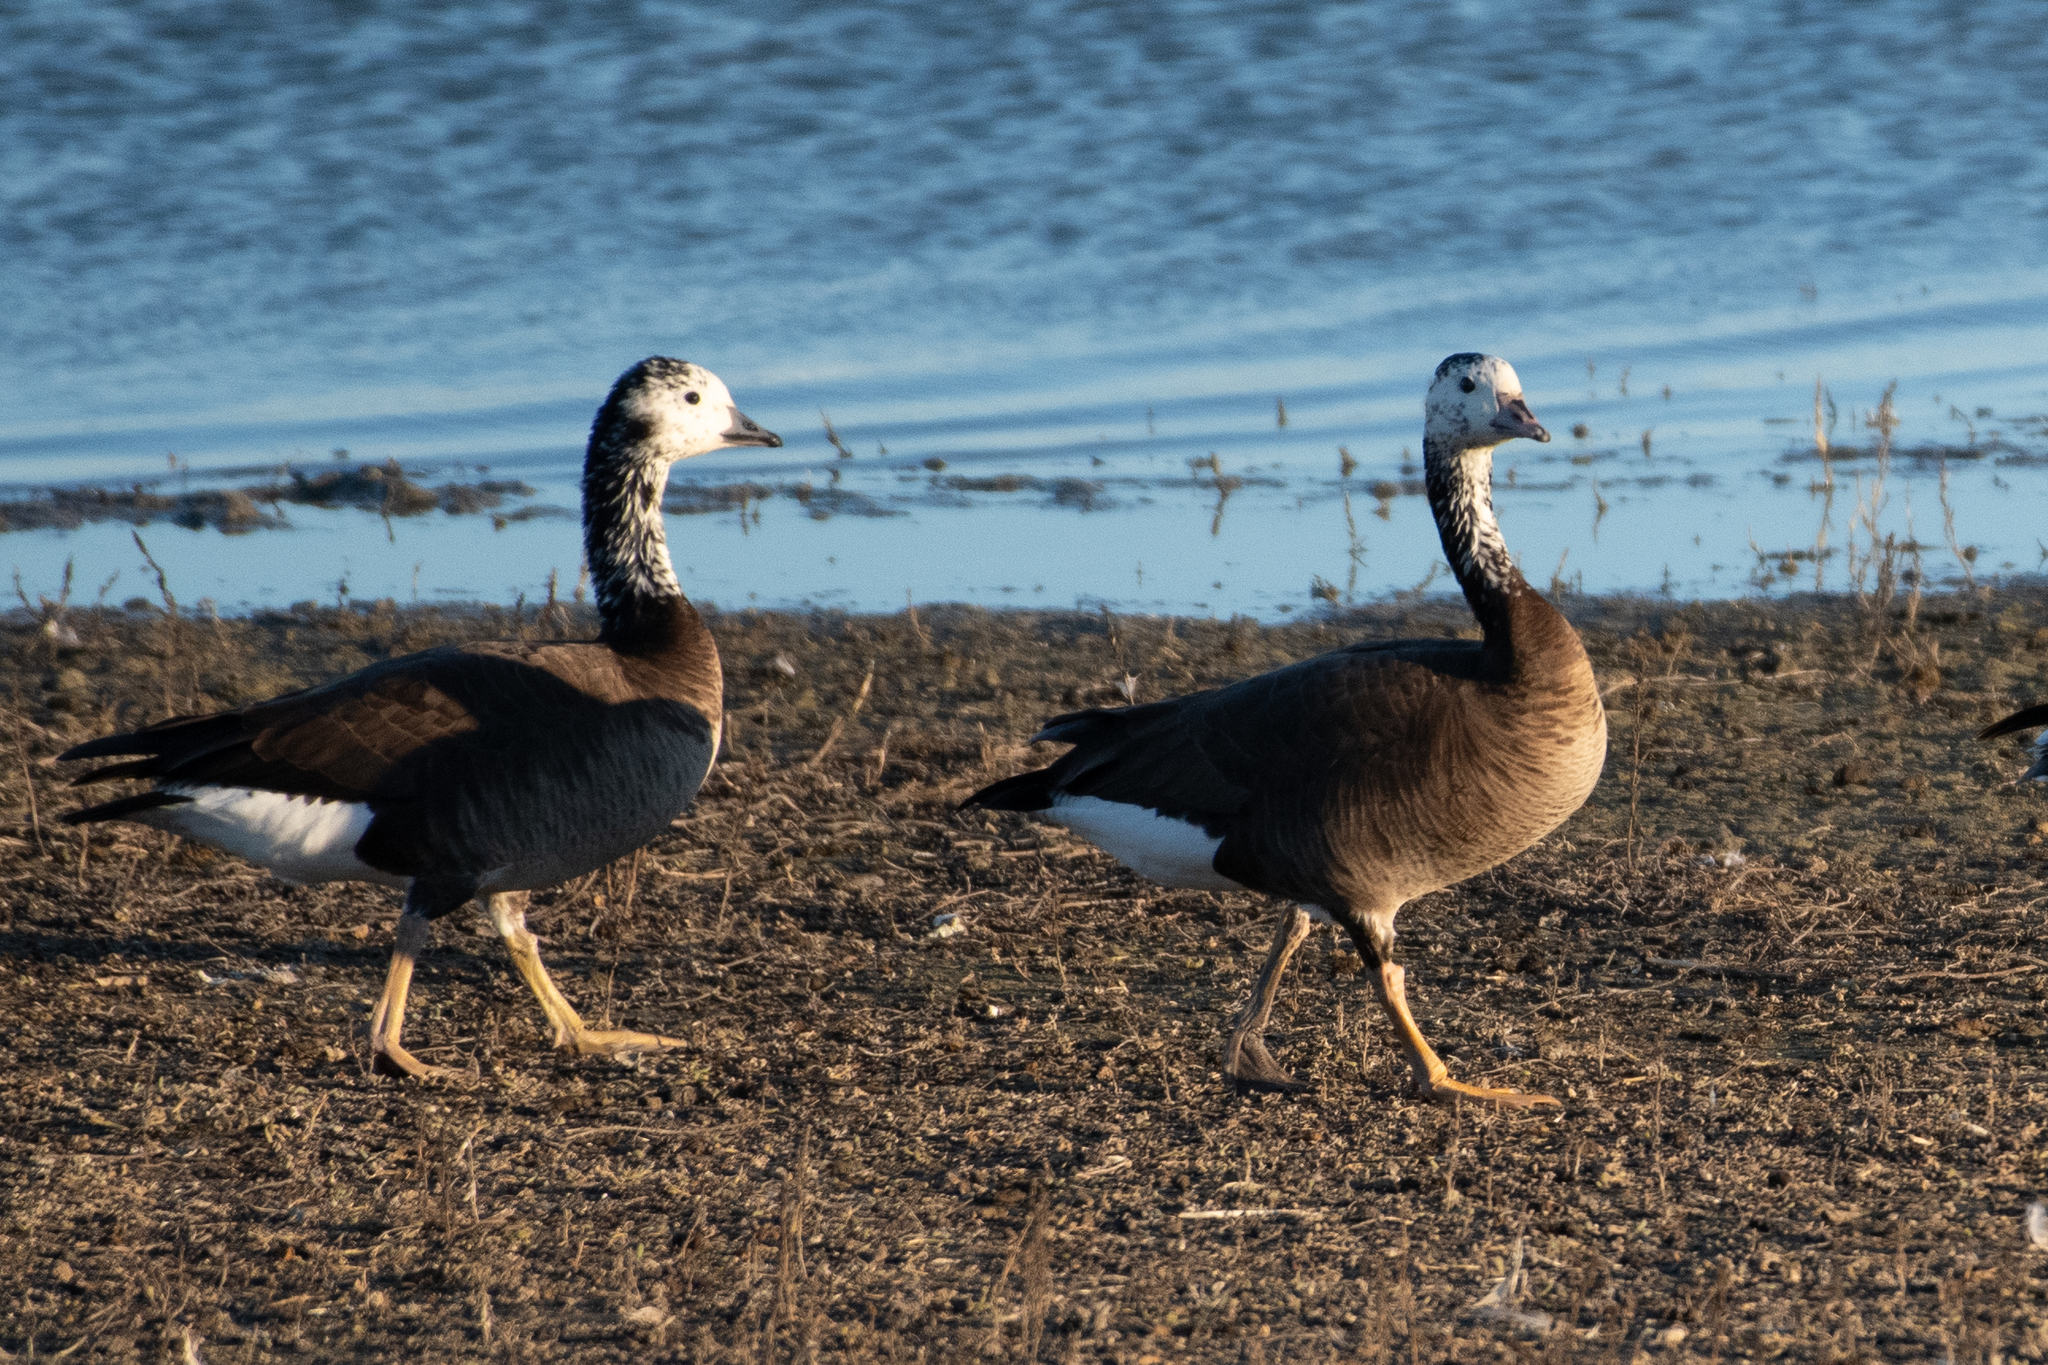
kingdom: Animalia
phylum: Chordata
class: Aves
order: Anseriformes
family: Anatidae
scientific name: Anatidae
